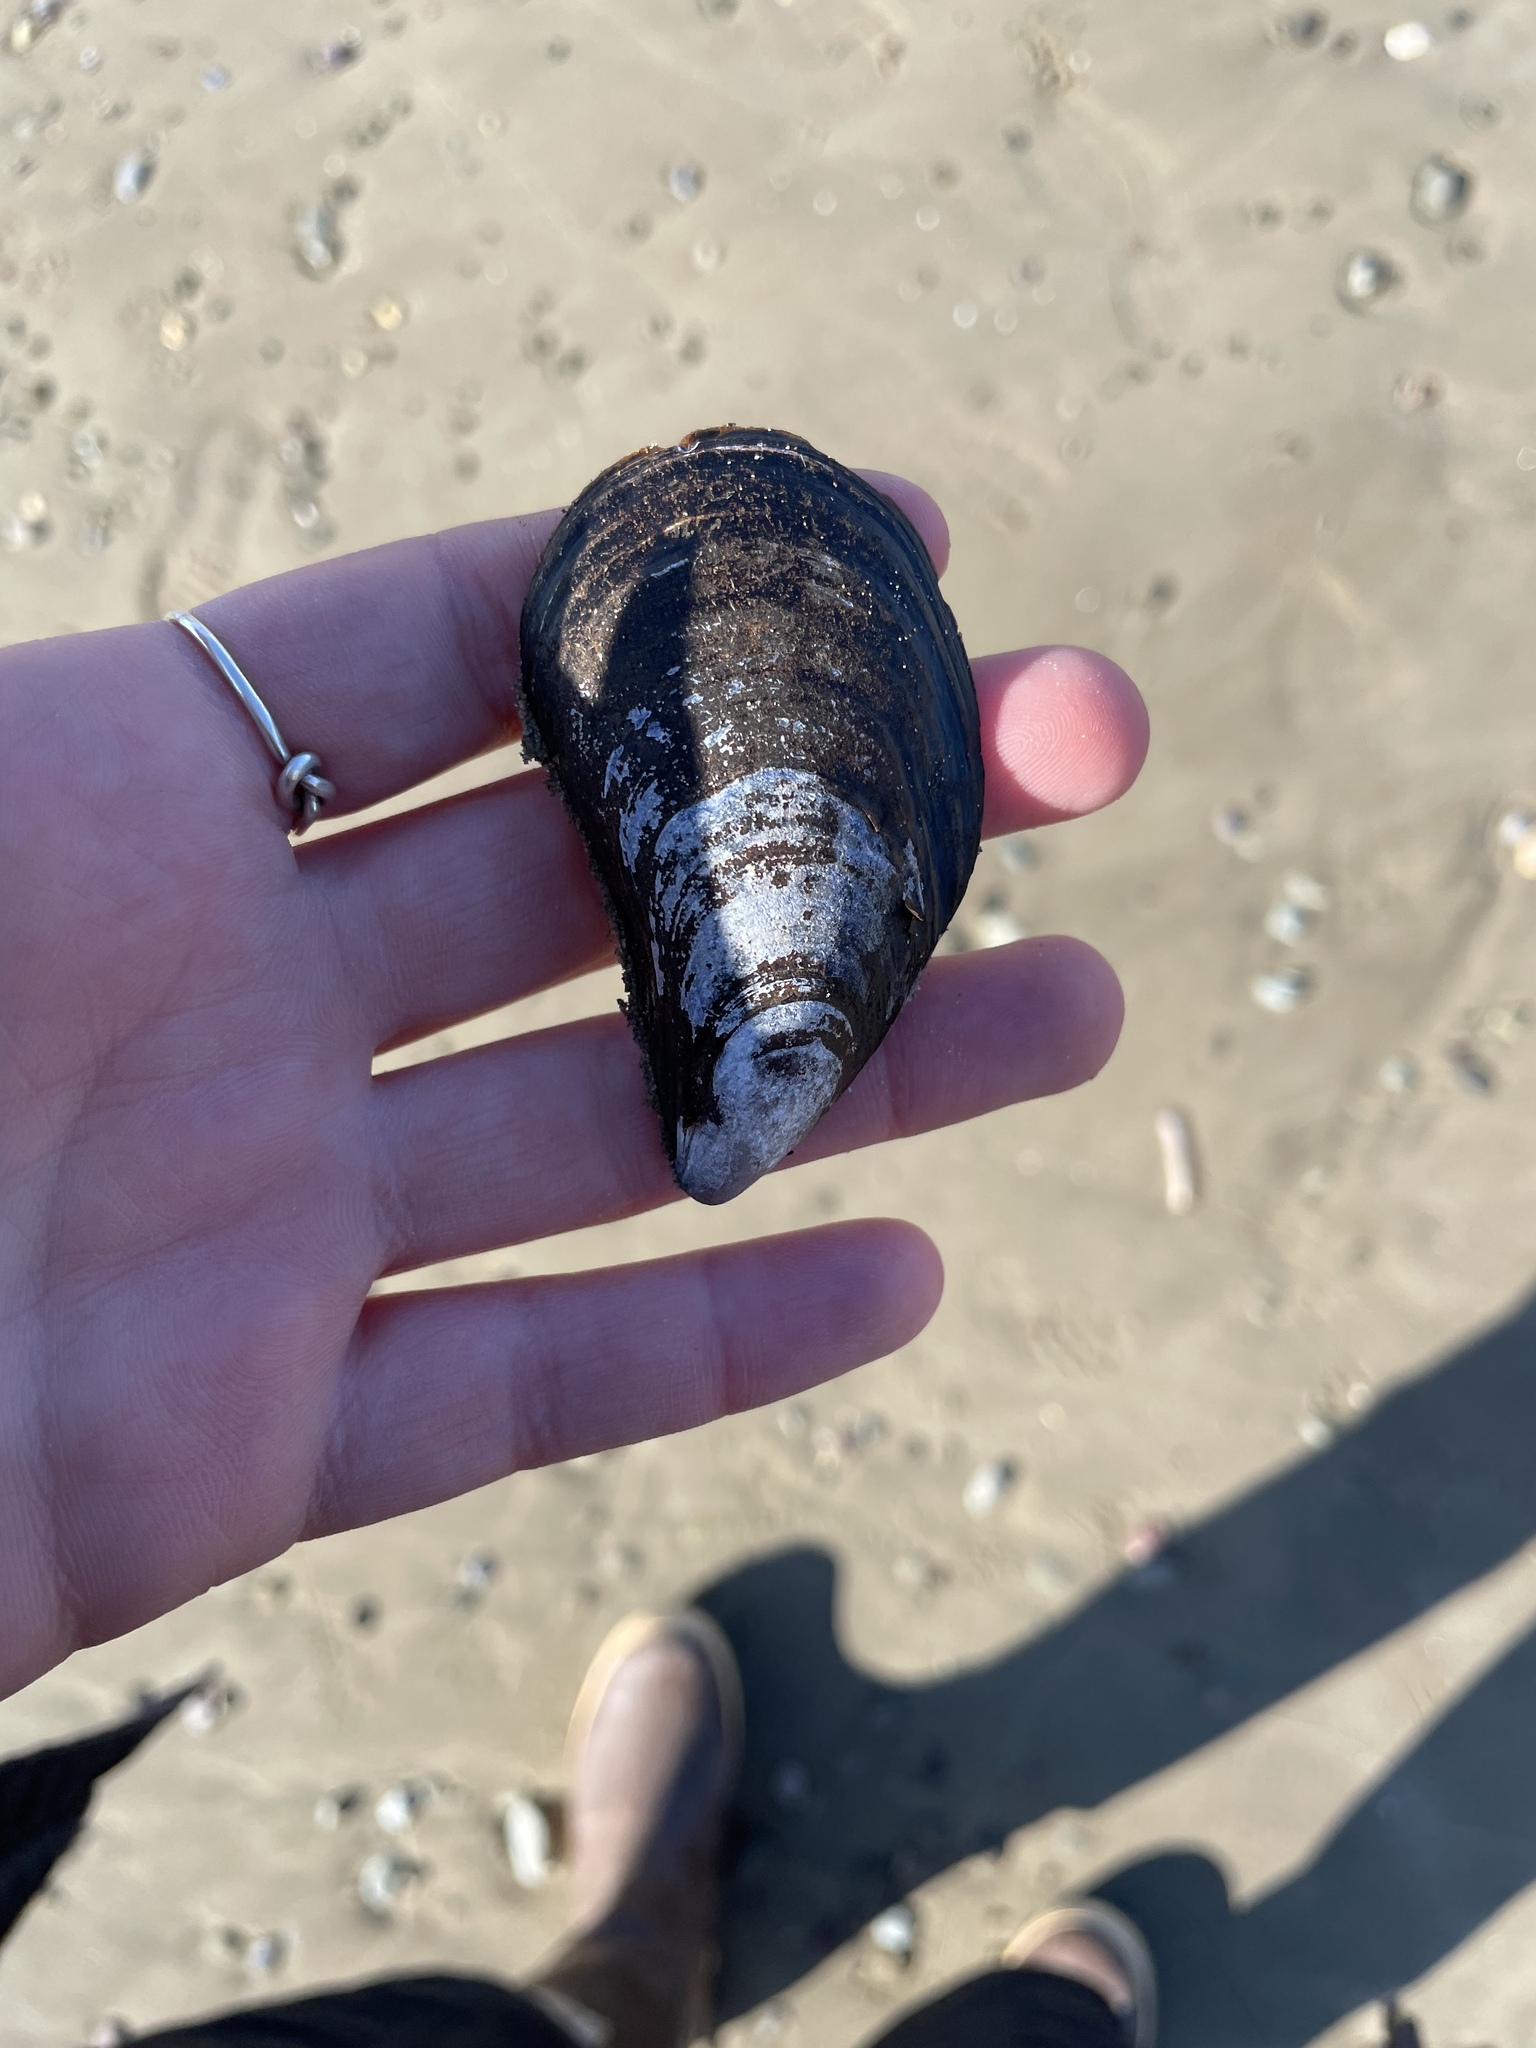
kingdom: Animalia
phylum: Mollusca
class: Bivalvia
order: Mytilida
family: Mytilidae
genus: Mytilus
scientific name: Mytilus
